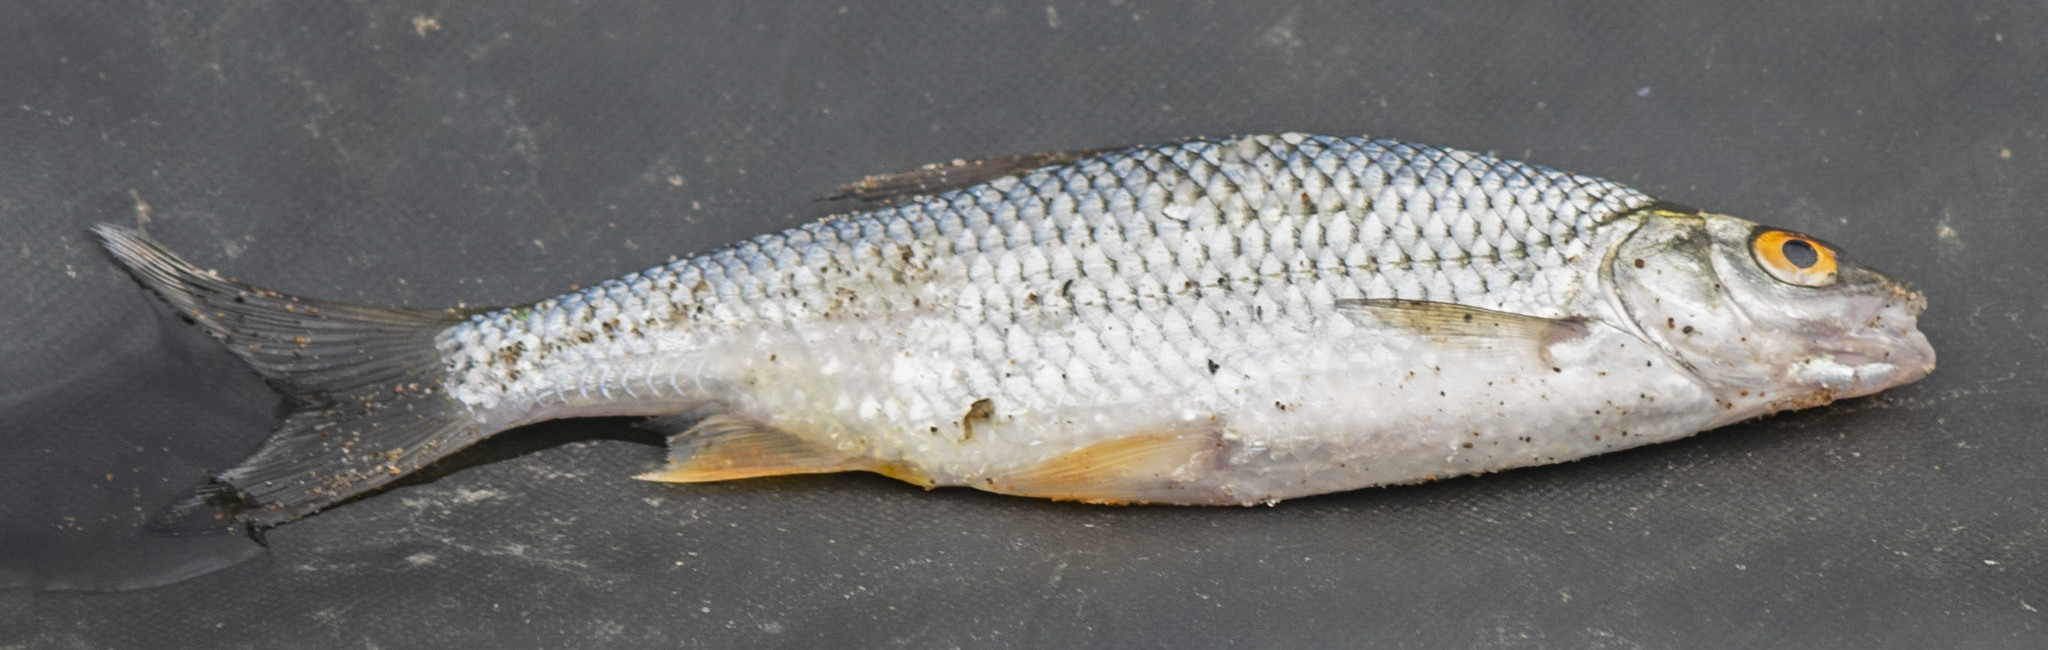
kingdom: Animalia
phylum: Chordata
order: Cypriniformes
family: Cyprinidae
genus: Rutilus
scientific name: Rutilus rutilus
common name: Roach
